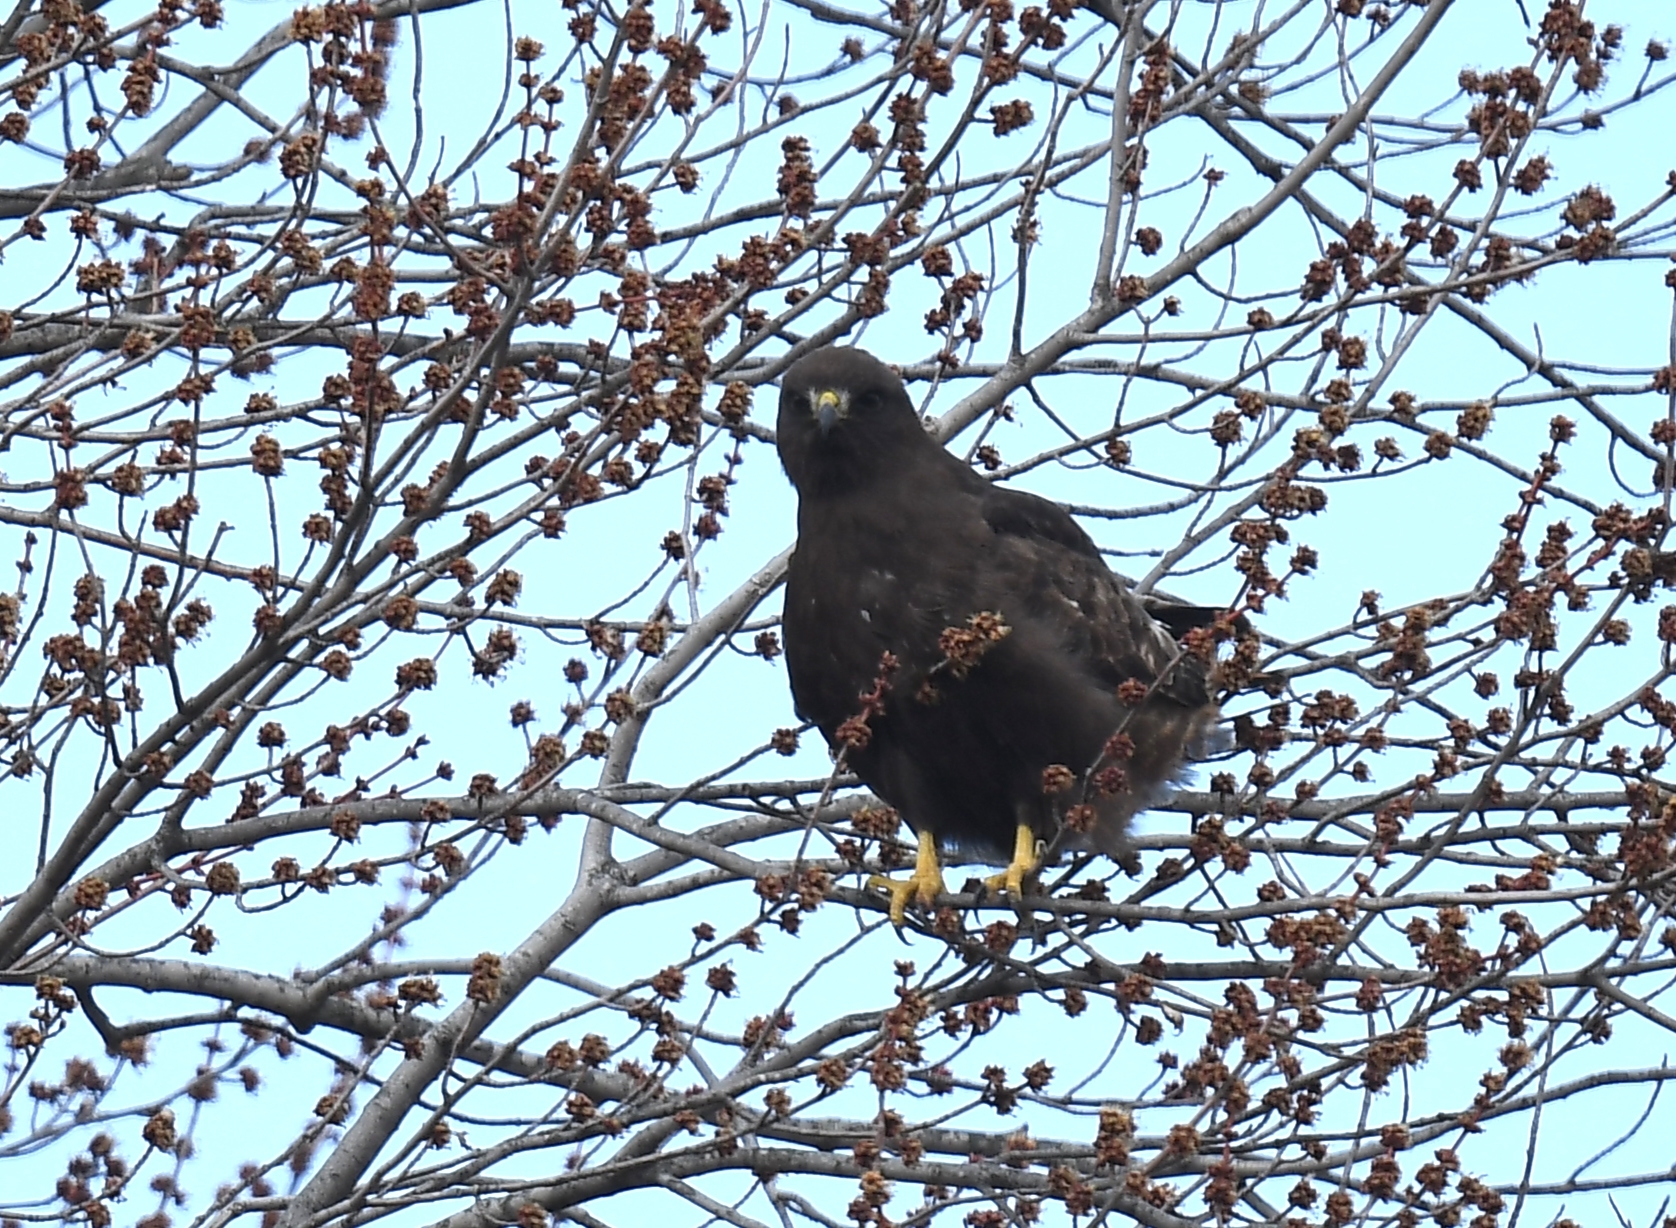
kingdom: Animalia
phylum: Chordata
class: Aves
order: Accipitriformes
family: Accipitridae
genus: Buteo
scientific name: Buteo jamaicensis
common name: Red-tailed hawk
